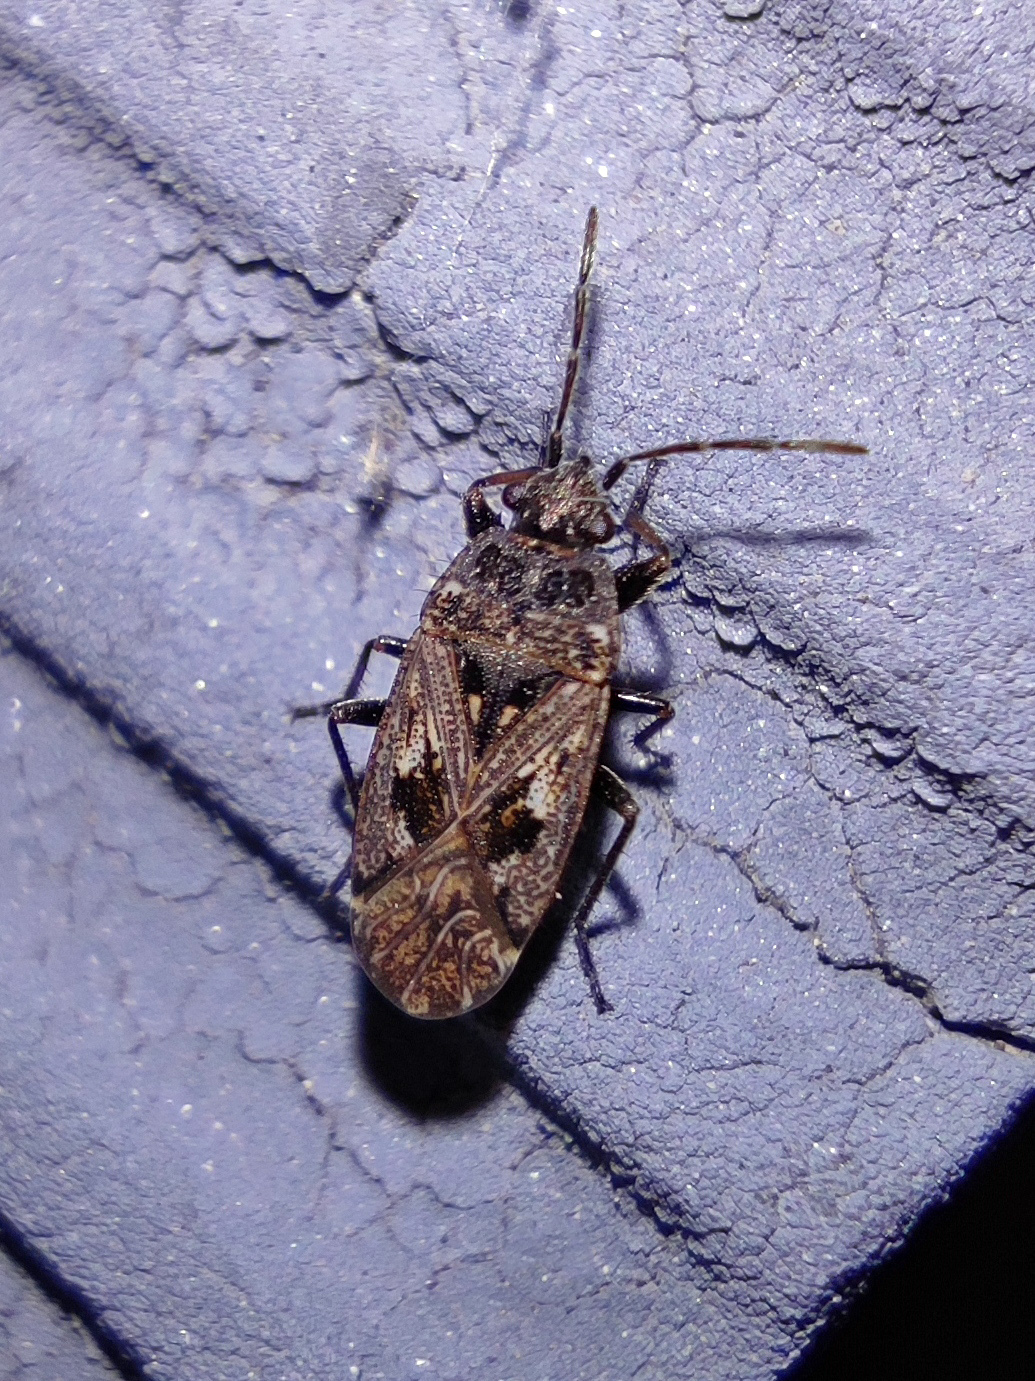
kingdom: Animalia
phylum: Arthropoda
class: Insecta
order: Hemiptera
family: Rhyparochromidae
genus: Sphragisticus
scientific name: Sphragisticus nebulosus
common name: Dirt-colored seed bug
